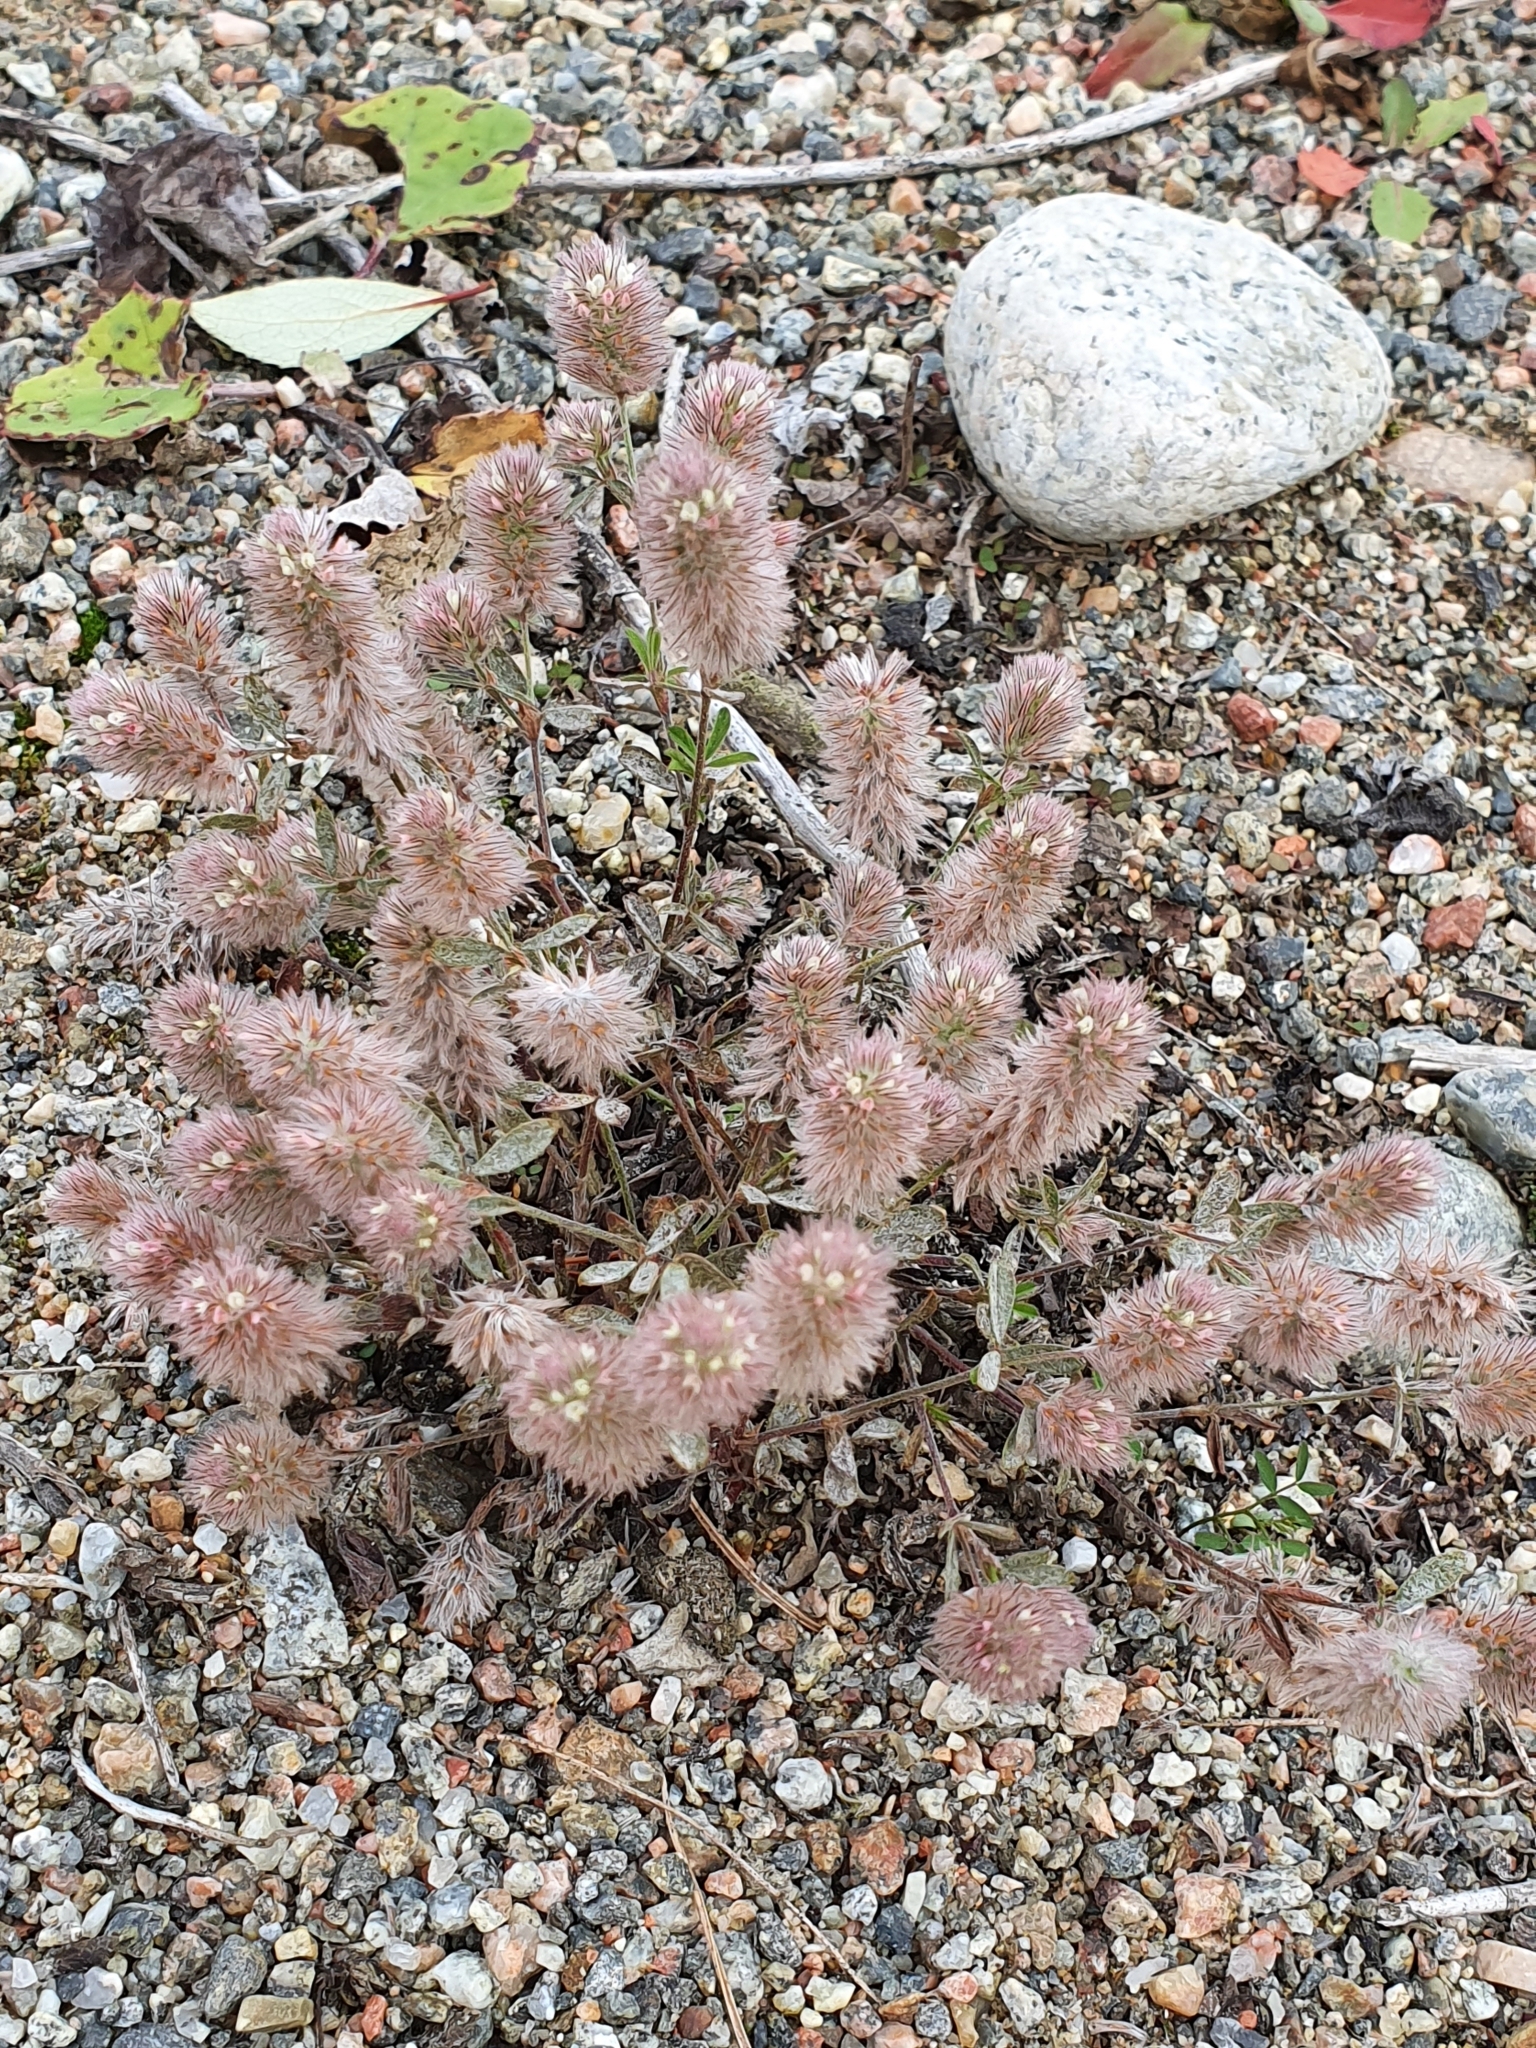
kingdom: Plantae
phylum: Tracheophyta
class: Magnoliopsida
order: Fabales
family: Fabaceae
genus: Trifolium
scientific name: Trifolium arvense
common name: Hare's-foot clover
